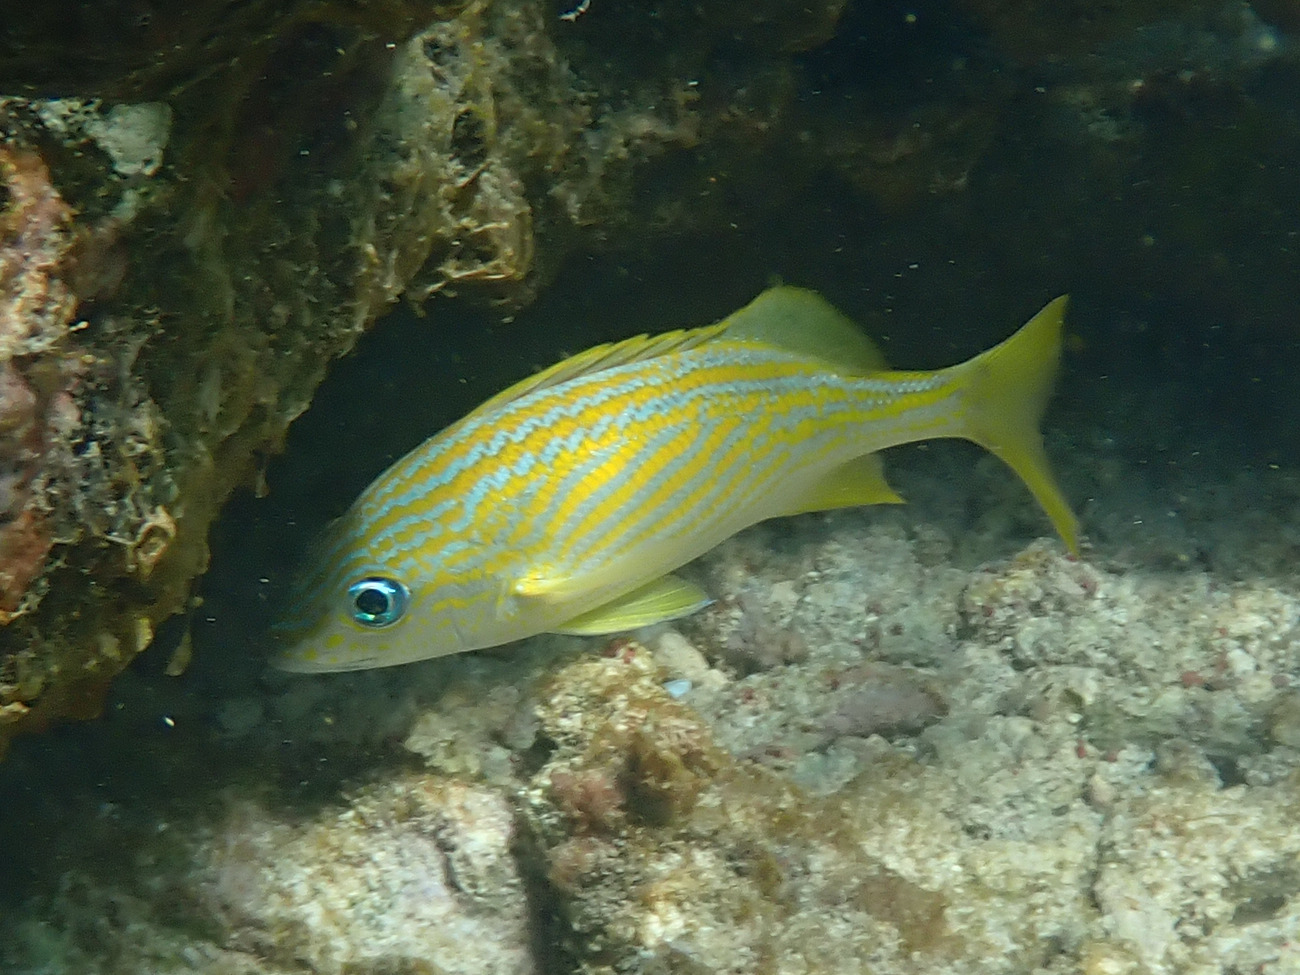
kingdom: Animalia
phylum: Chordata
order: Perciformes
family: Haemulidae
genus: Haemulon
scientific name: Haemulon flavolineatum
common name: French grunt
